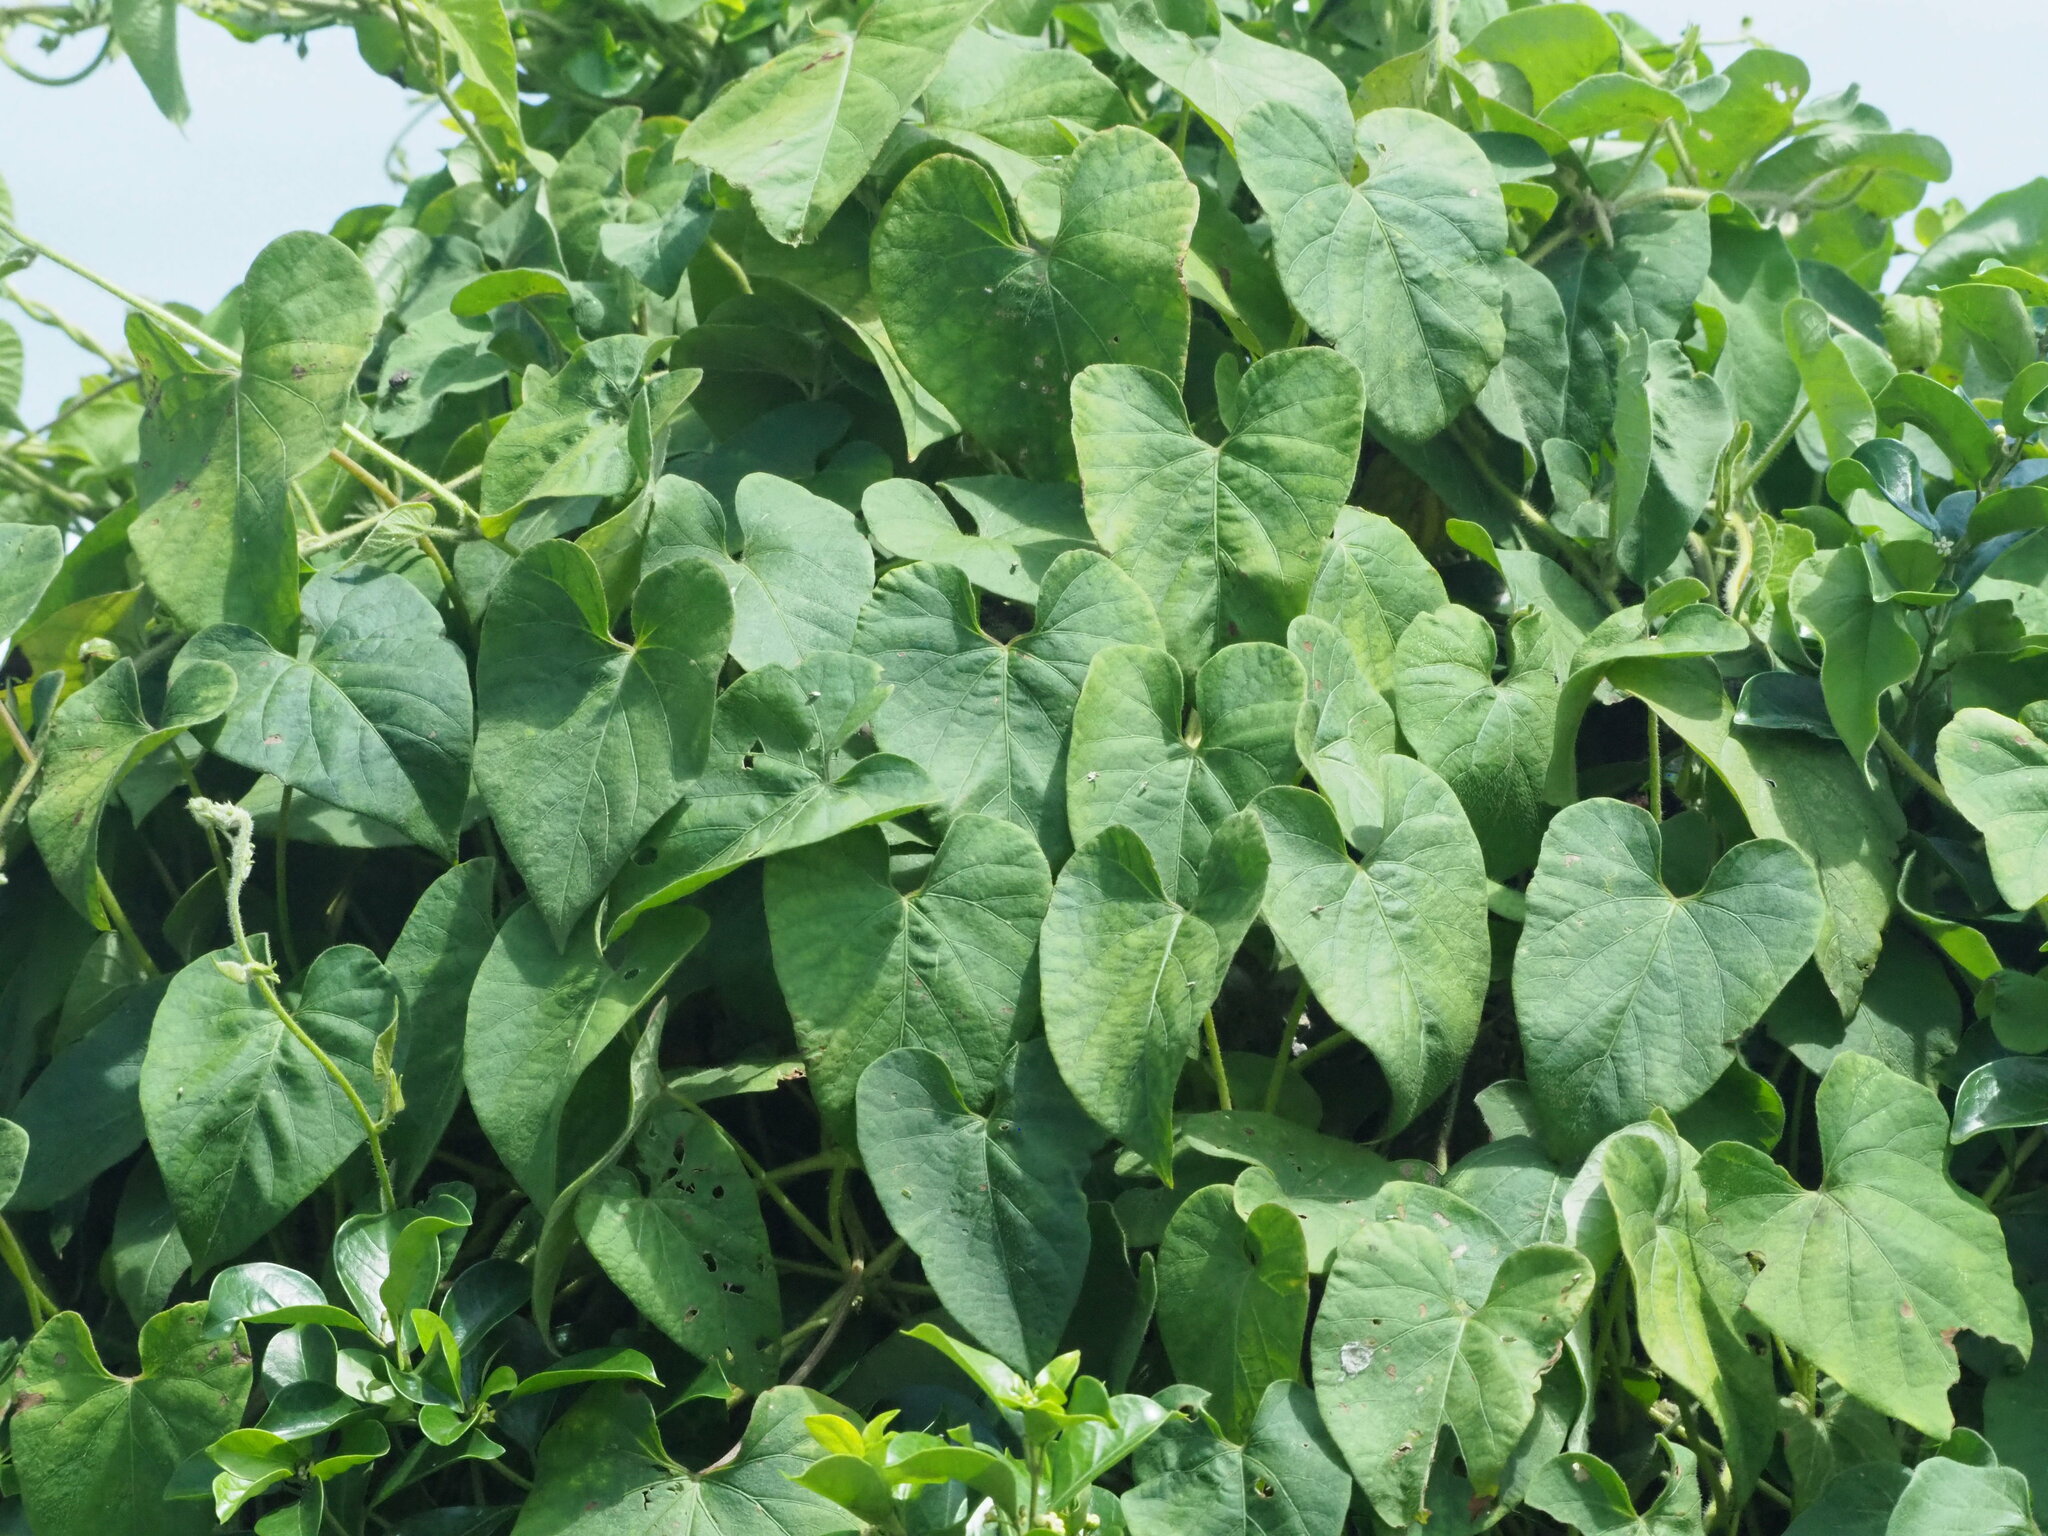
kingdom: Plantae
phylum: Tracheophyta
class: Magnoliopsida
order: Solanales
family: Convolvulaceae
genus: Ipomoea
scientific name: Ipomoea biflora
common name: Bellvine
